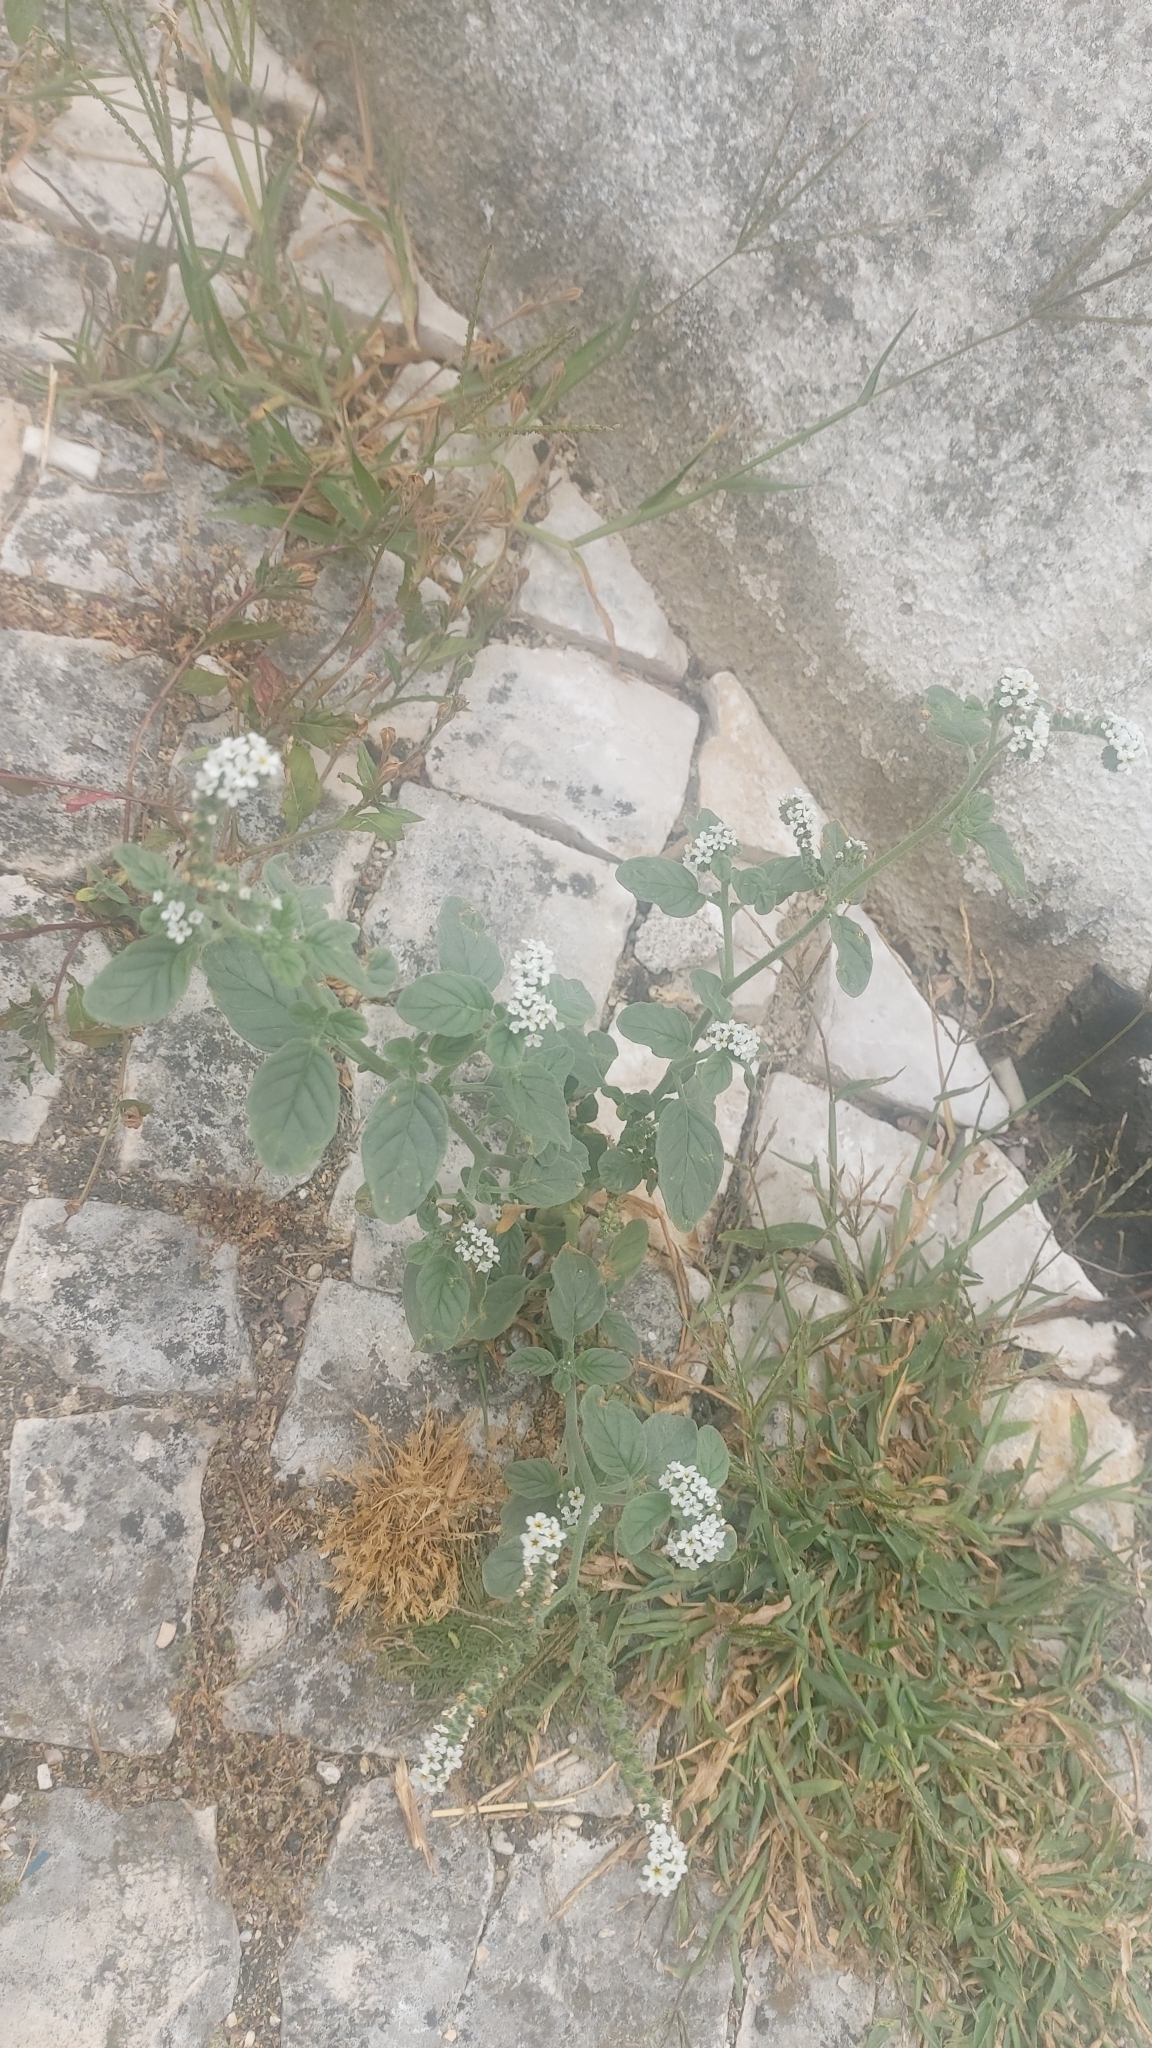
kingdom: Plantae
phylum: Tracheophyta
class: Magnoliopsida
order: Boraginales
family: Heliotropiaceae
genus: Heliotropium
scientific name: Heliotropium europaeum
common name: European heliotrope
